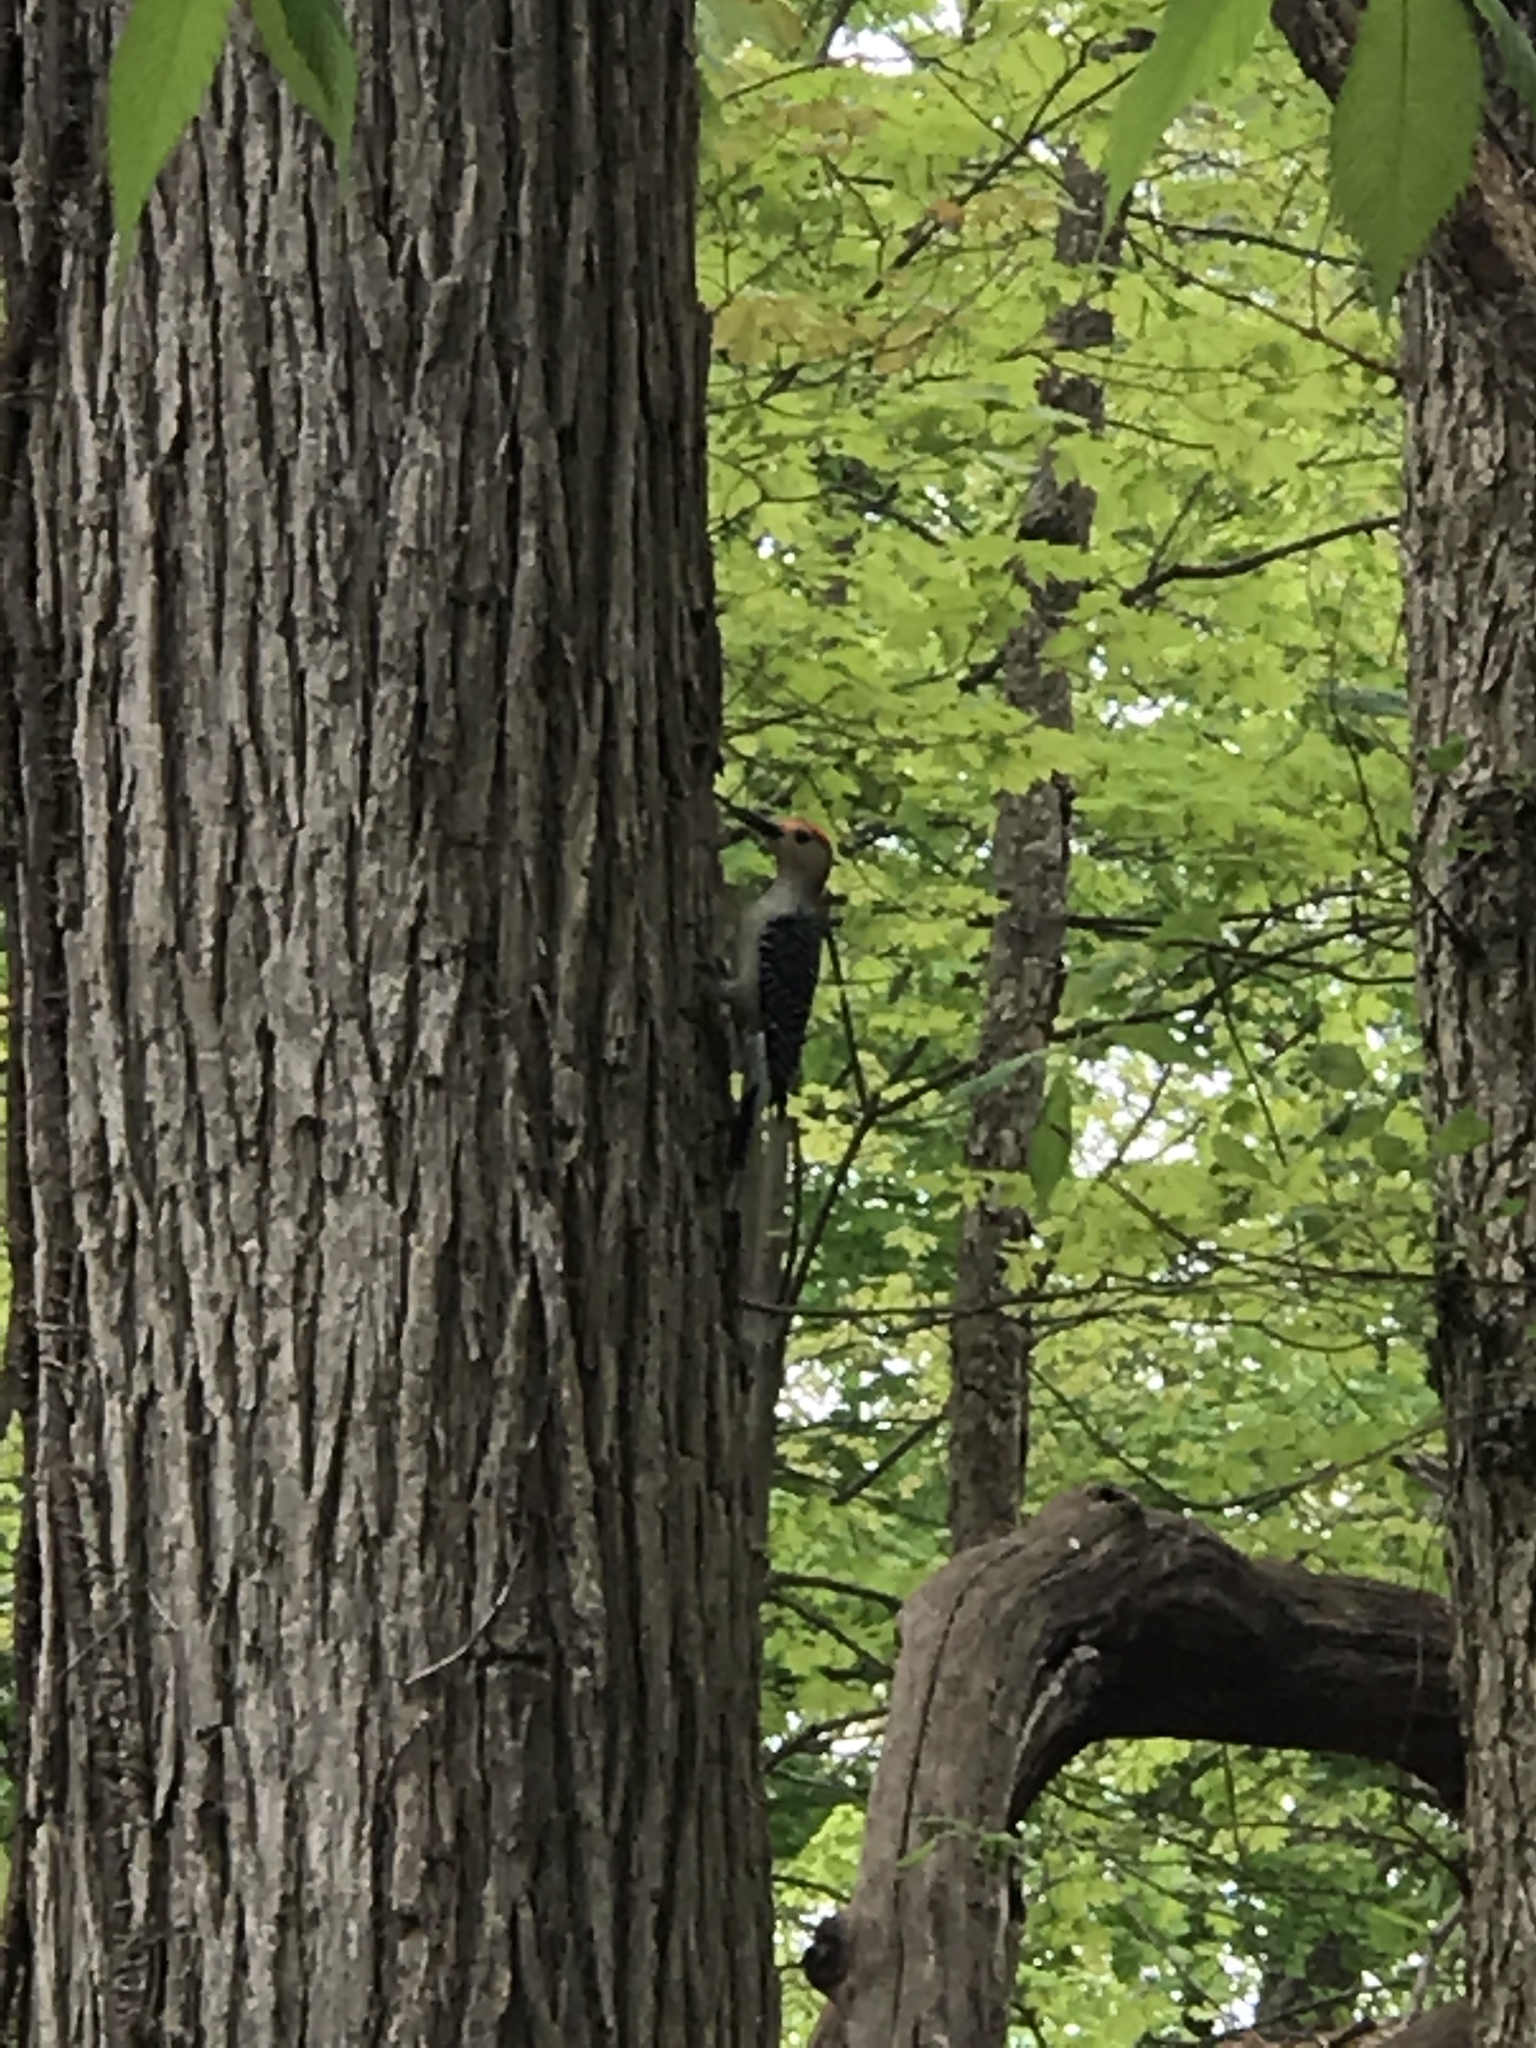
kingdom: Animalia
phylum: Chordata
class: Aves
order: Piciformes
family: Picidae
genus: Melanerpes
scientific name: Melanerpes carolinus
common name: Red-bellied woodpecker
